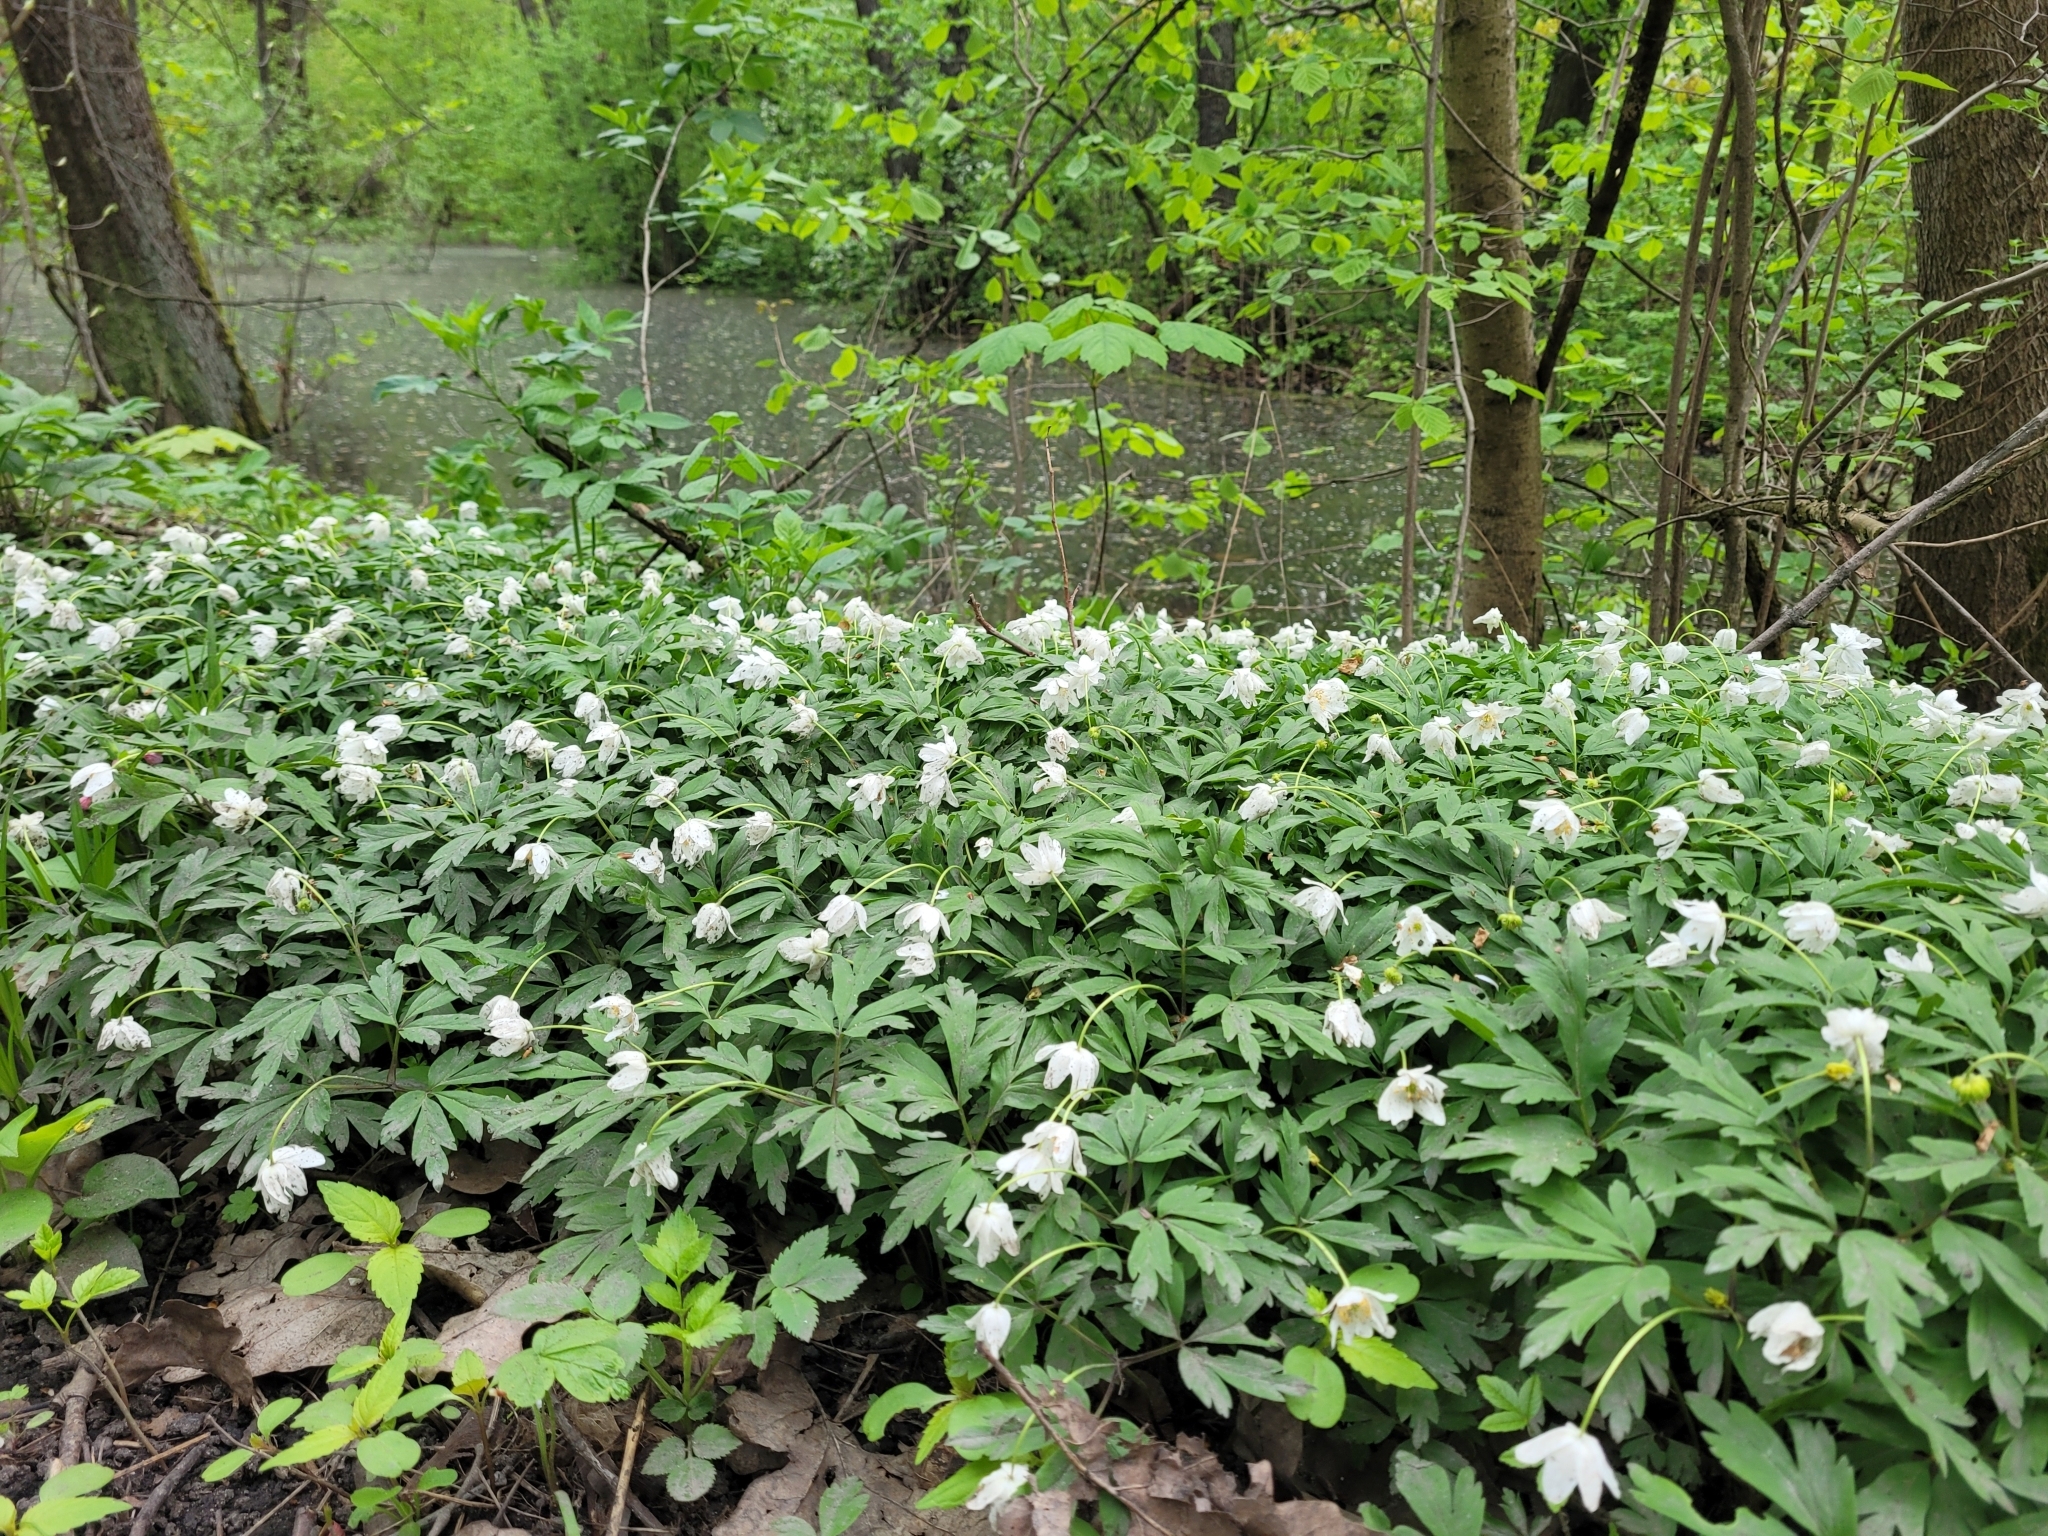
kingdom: Plantae
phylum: Tracheophyta
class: Magnoliopsida
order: Ranunculales
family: Ranunculaceae
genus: Anemone
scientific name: Anemone nemorosa
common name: Wood anemone
